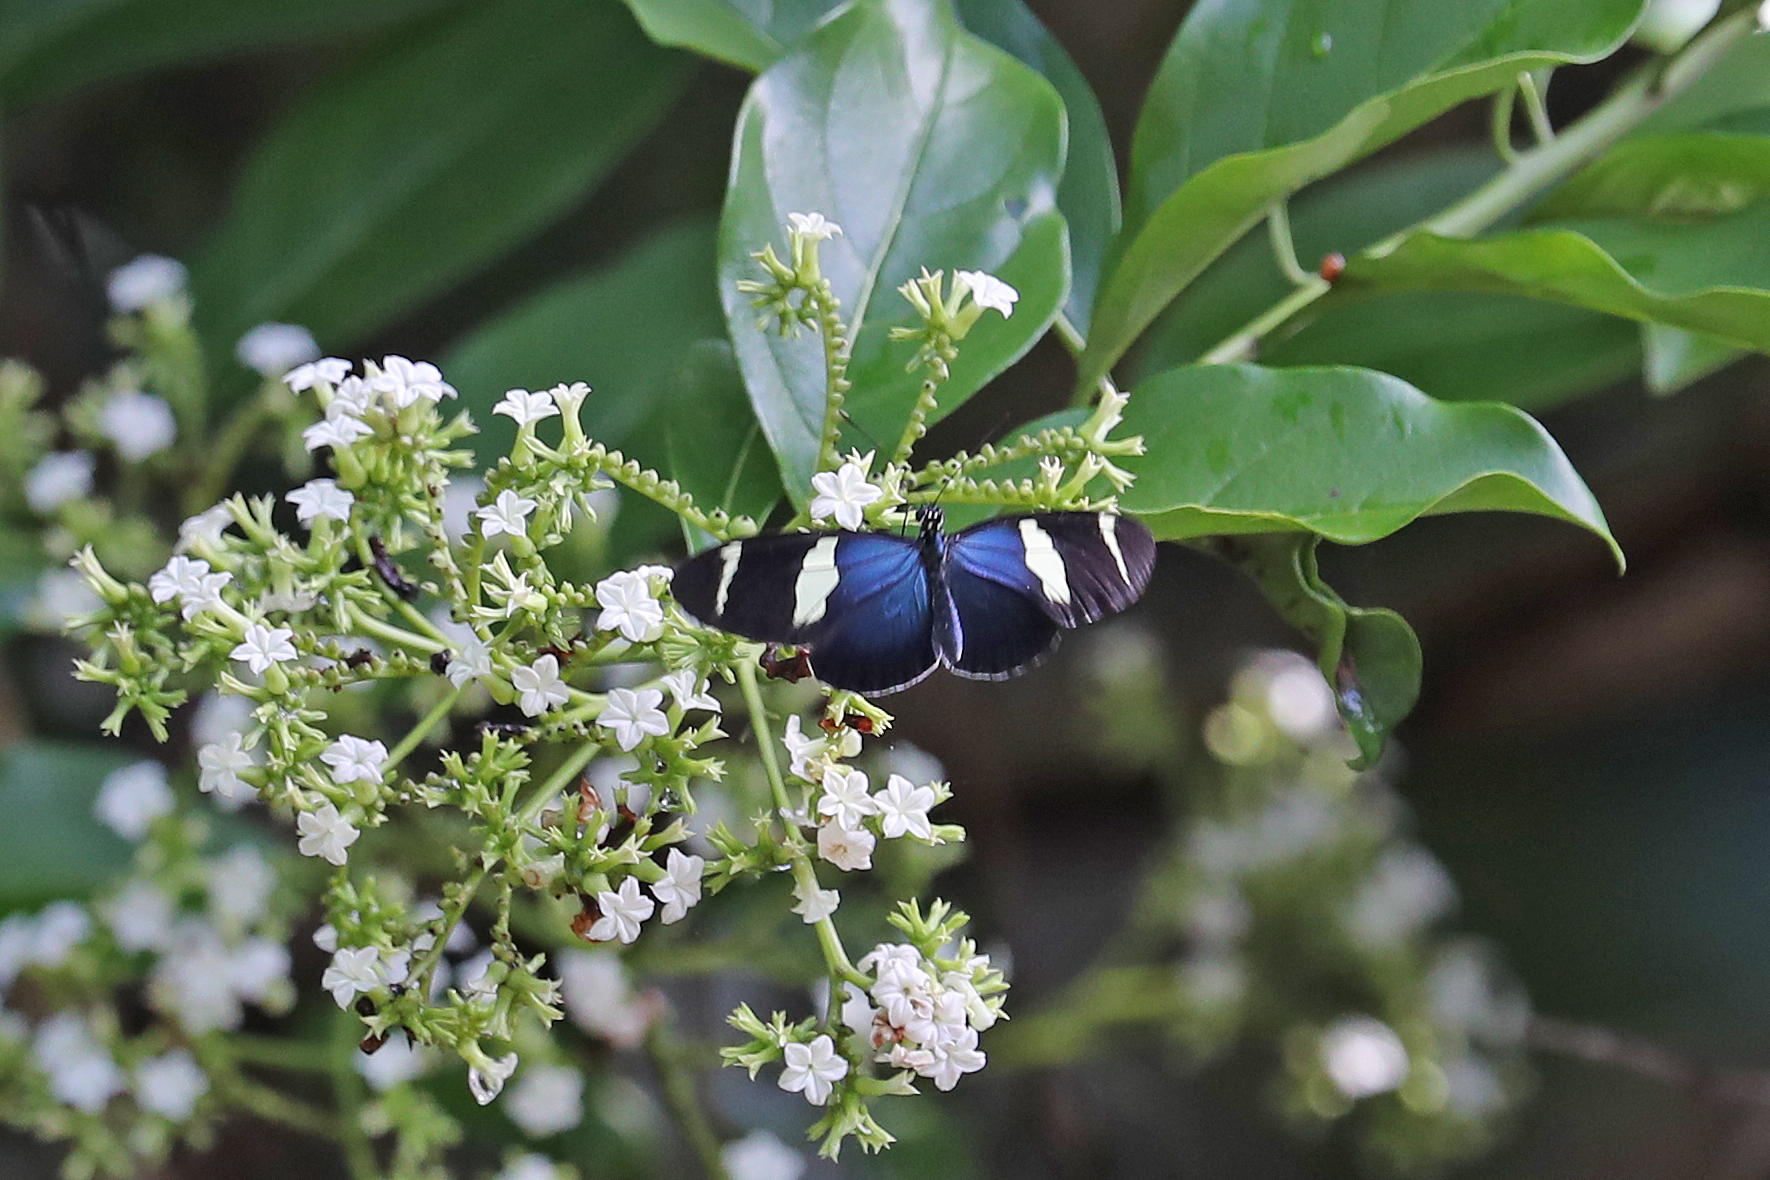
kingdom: Animalia
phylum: Arthropoda
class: Insecta
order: Lepidoptera
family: Nymphalidae
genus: Heliconius
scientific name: Heliconius sara
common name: Sara longwing
